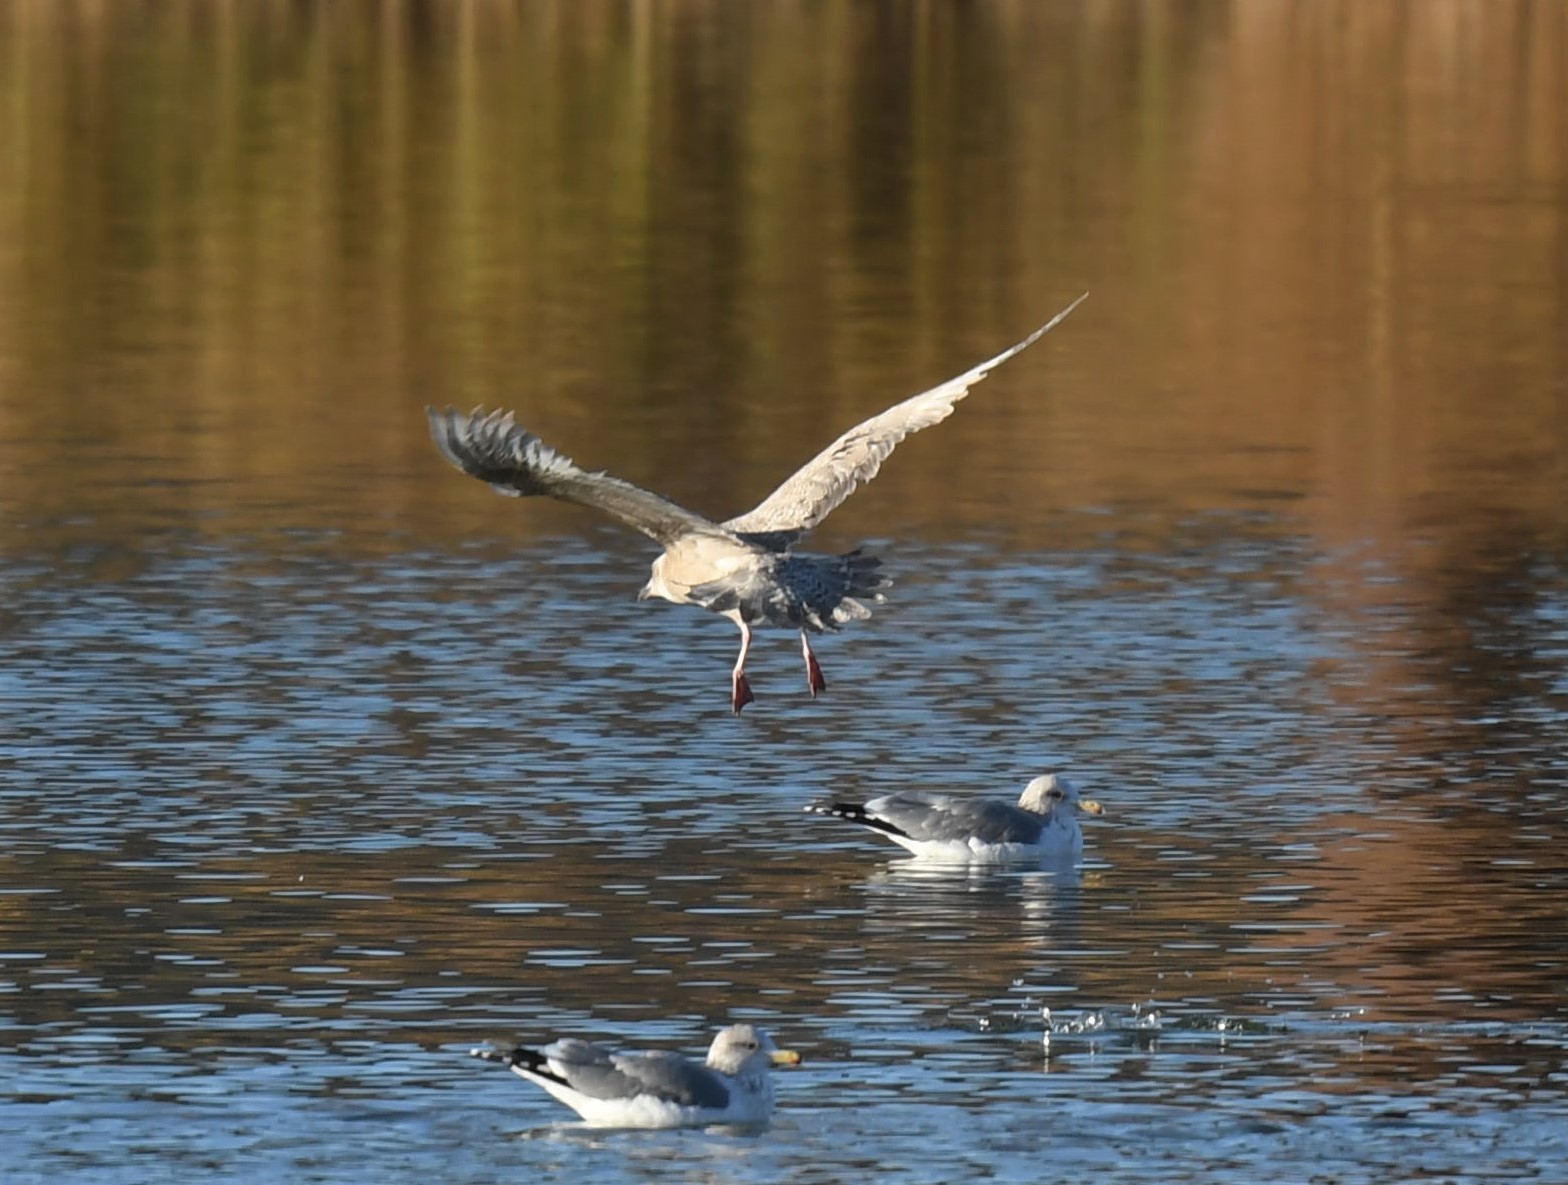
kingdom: Animalia
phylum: Chordata
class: Aves
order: Charadriiformes
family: Laridae
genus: Larus
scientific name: Larus glaucoides
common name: Iceland gull
